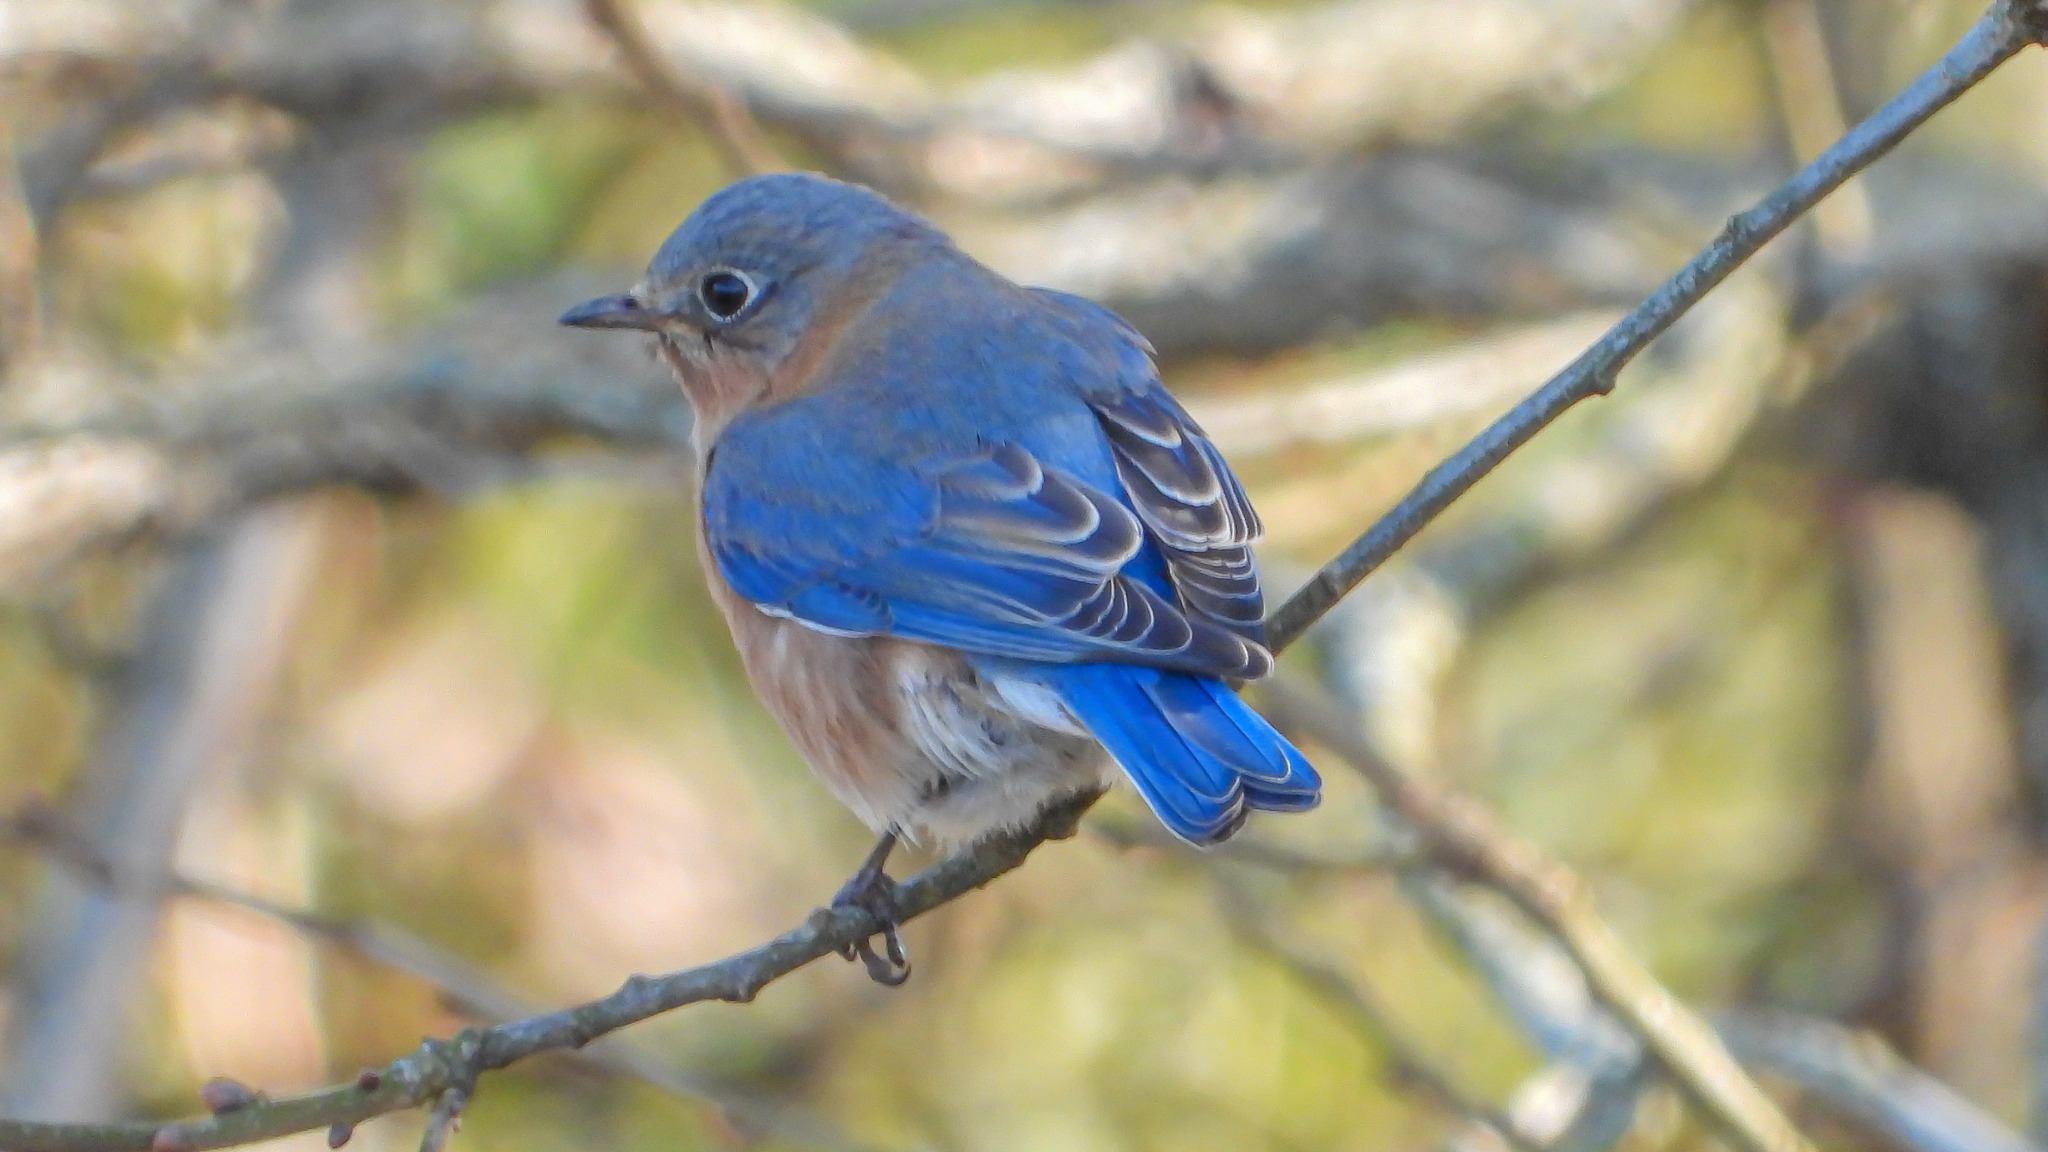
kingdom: Animalia
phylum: Chordata
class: Aves
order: Passeriformes
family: Turdidae
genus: Sialia
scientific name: Sialia sialis
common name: Eastern bluebird
